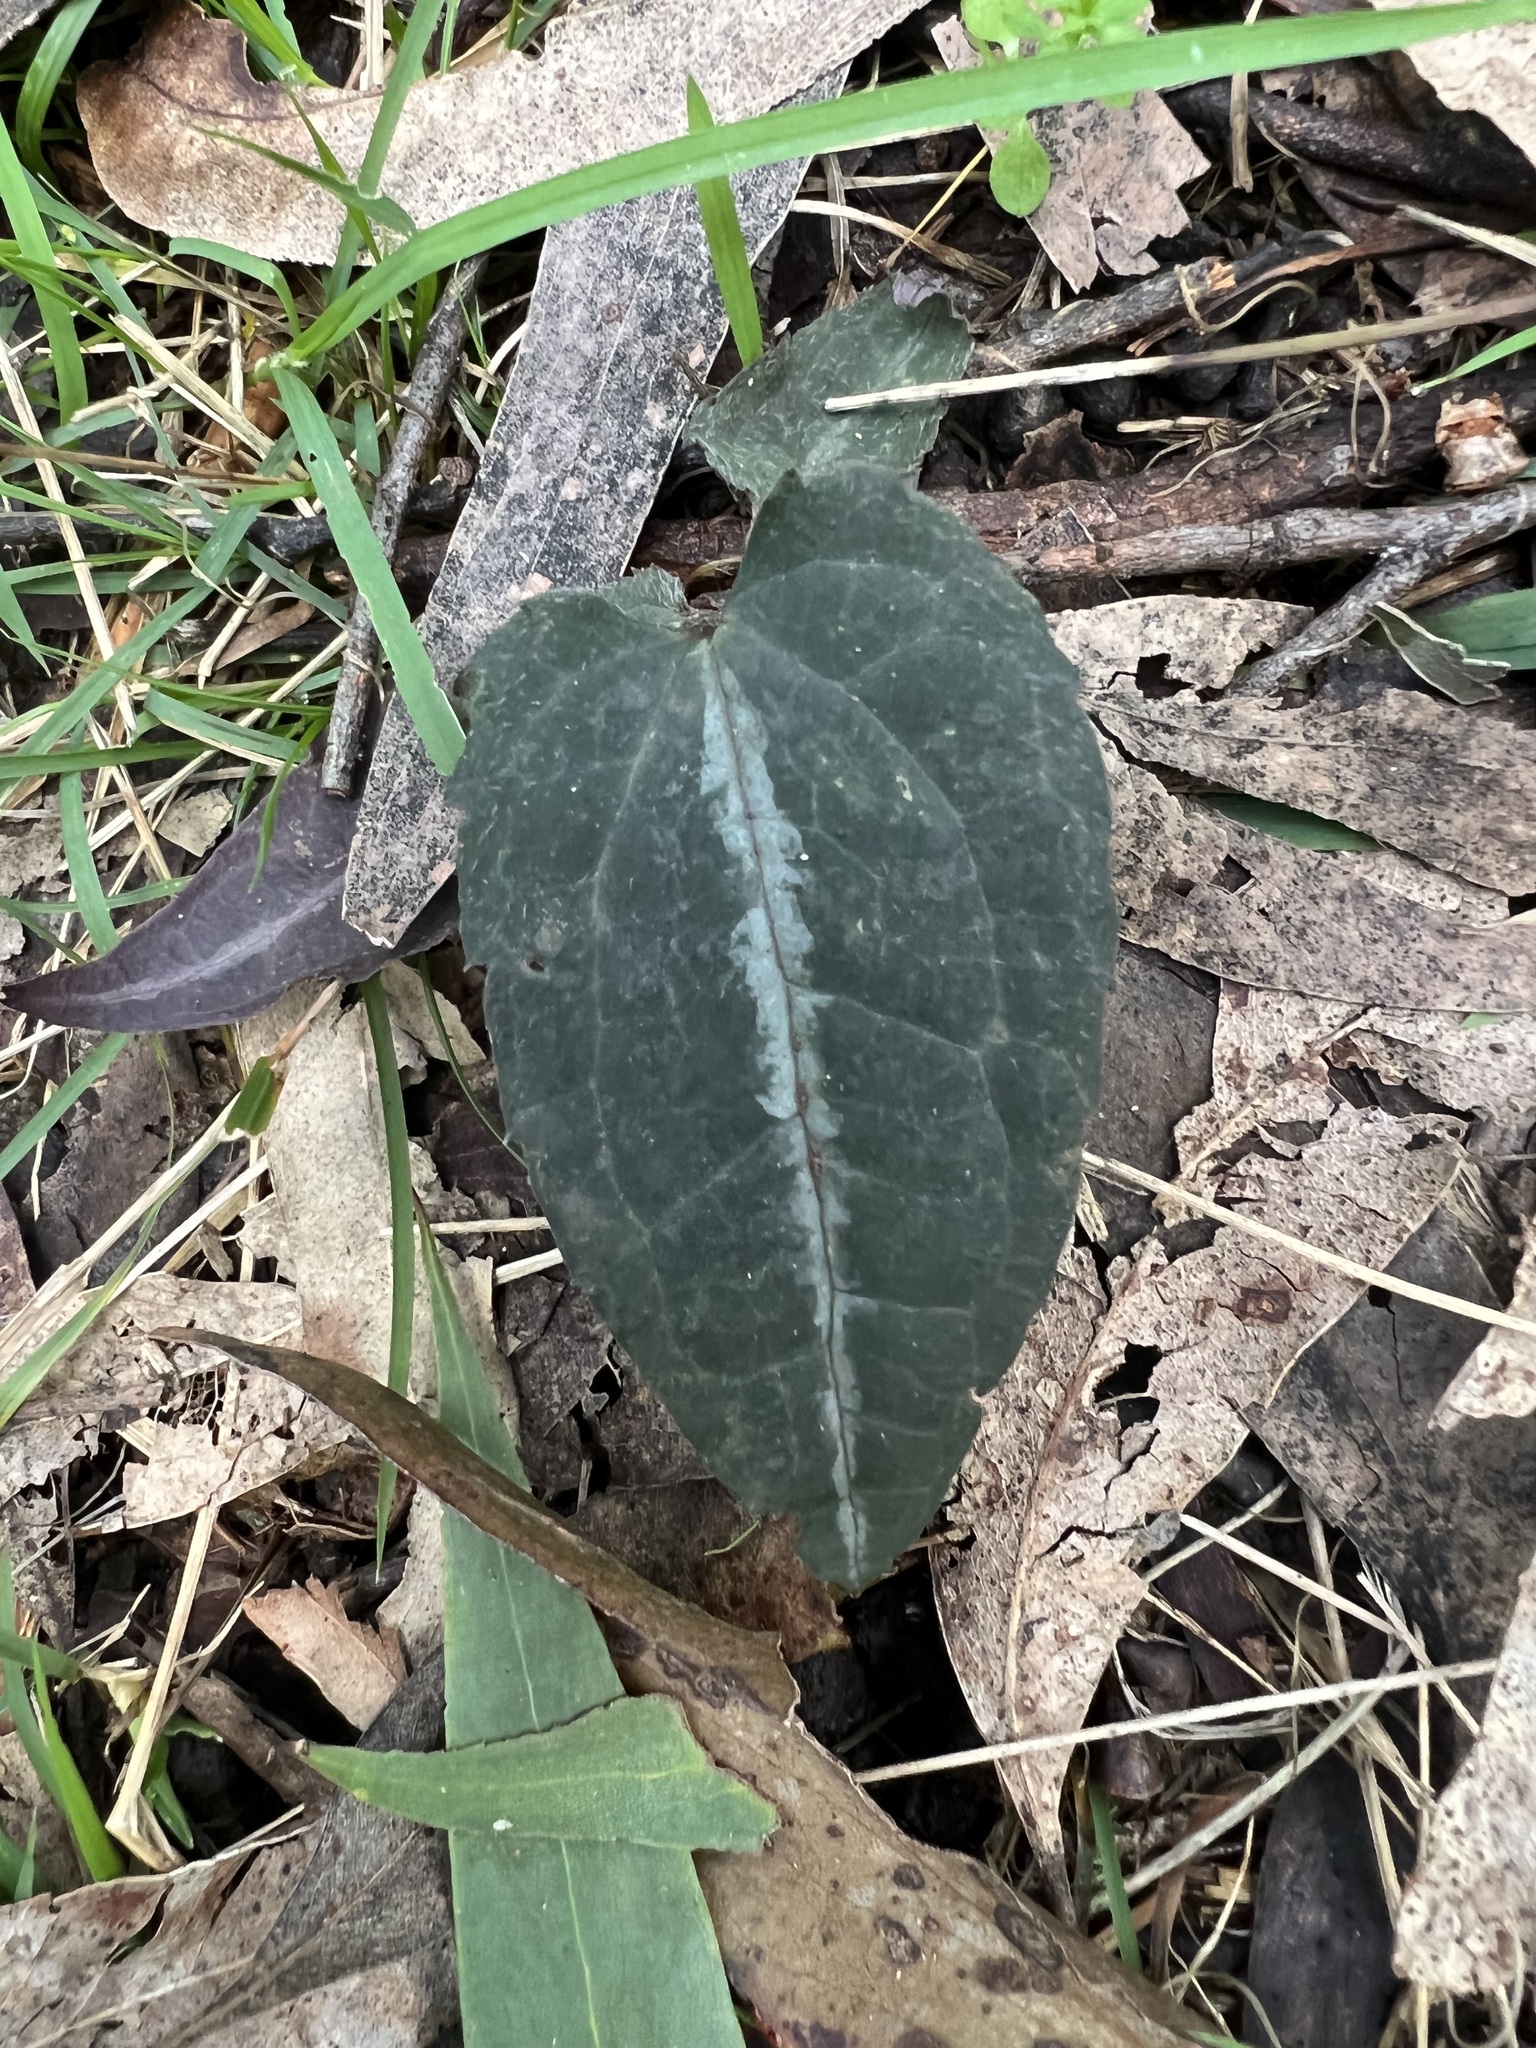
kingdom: Plantae
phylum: Tracheophyta
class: Magnoliopsida
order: Ranunculales
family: Ranunculaceae
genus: Clematis
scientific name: Clematis aristata
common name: Mountain clematis
